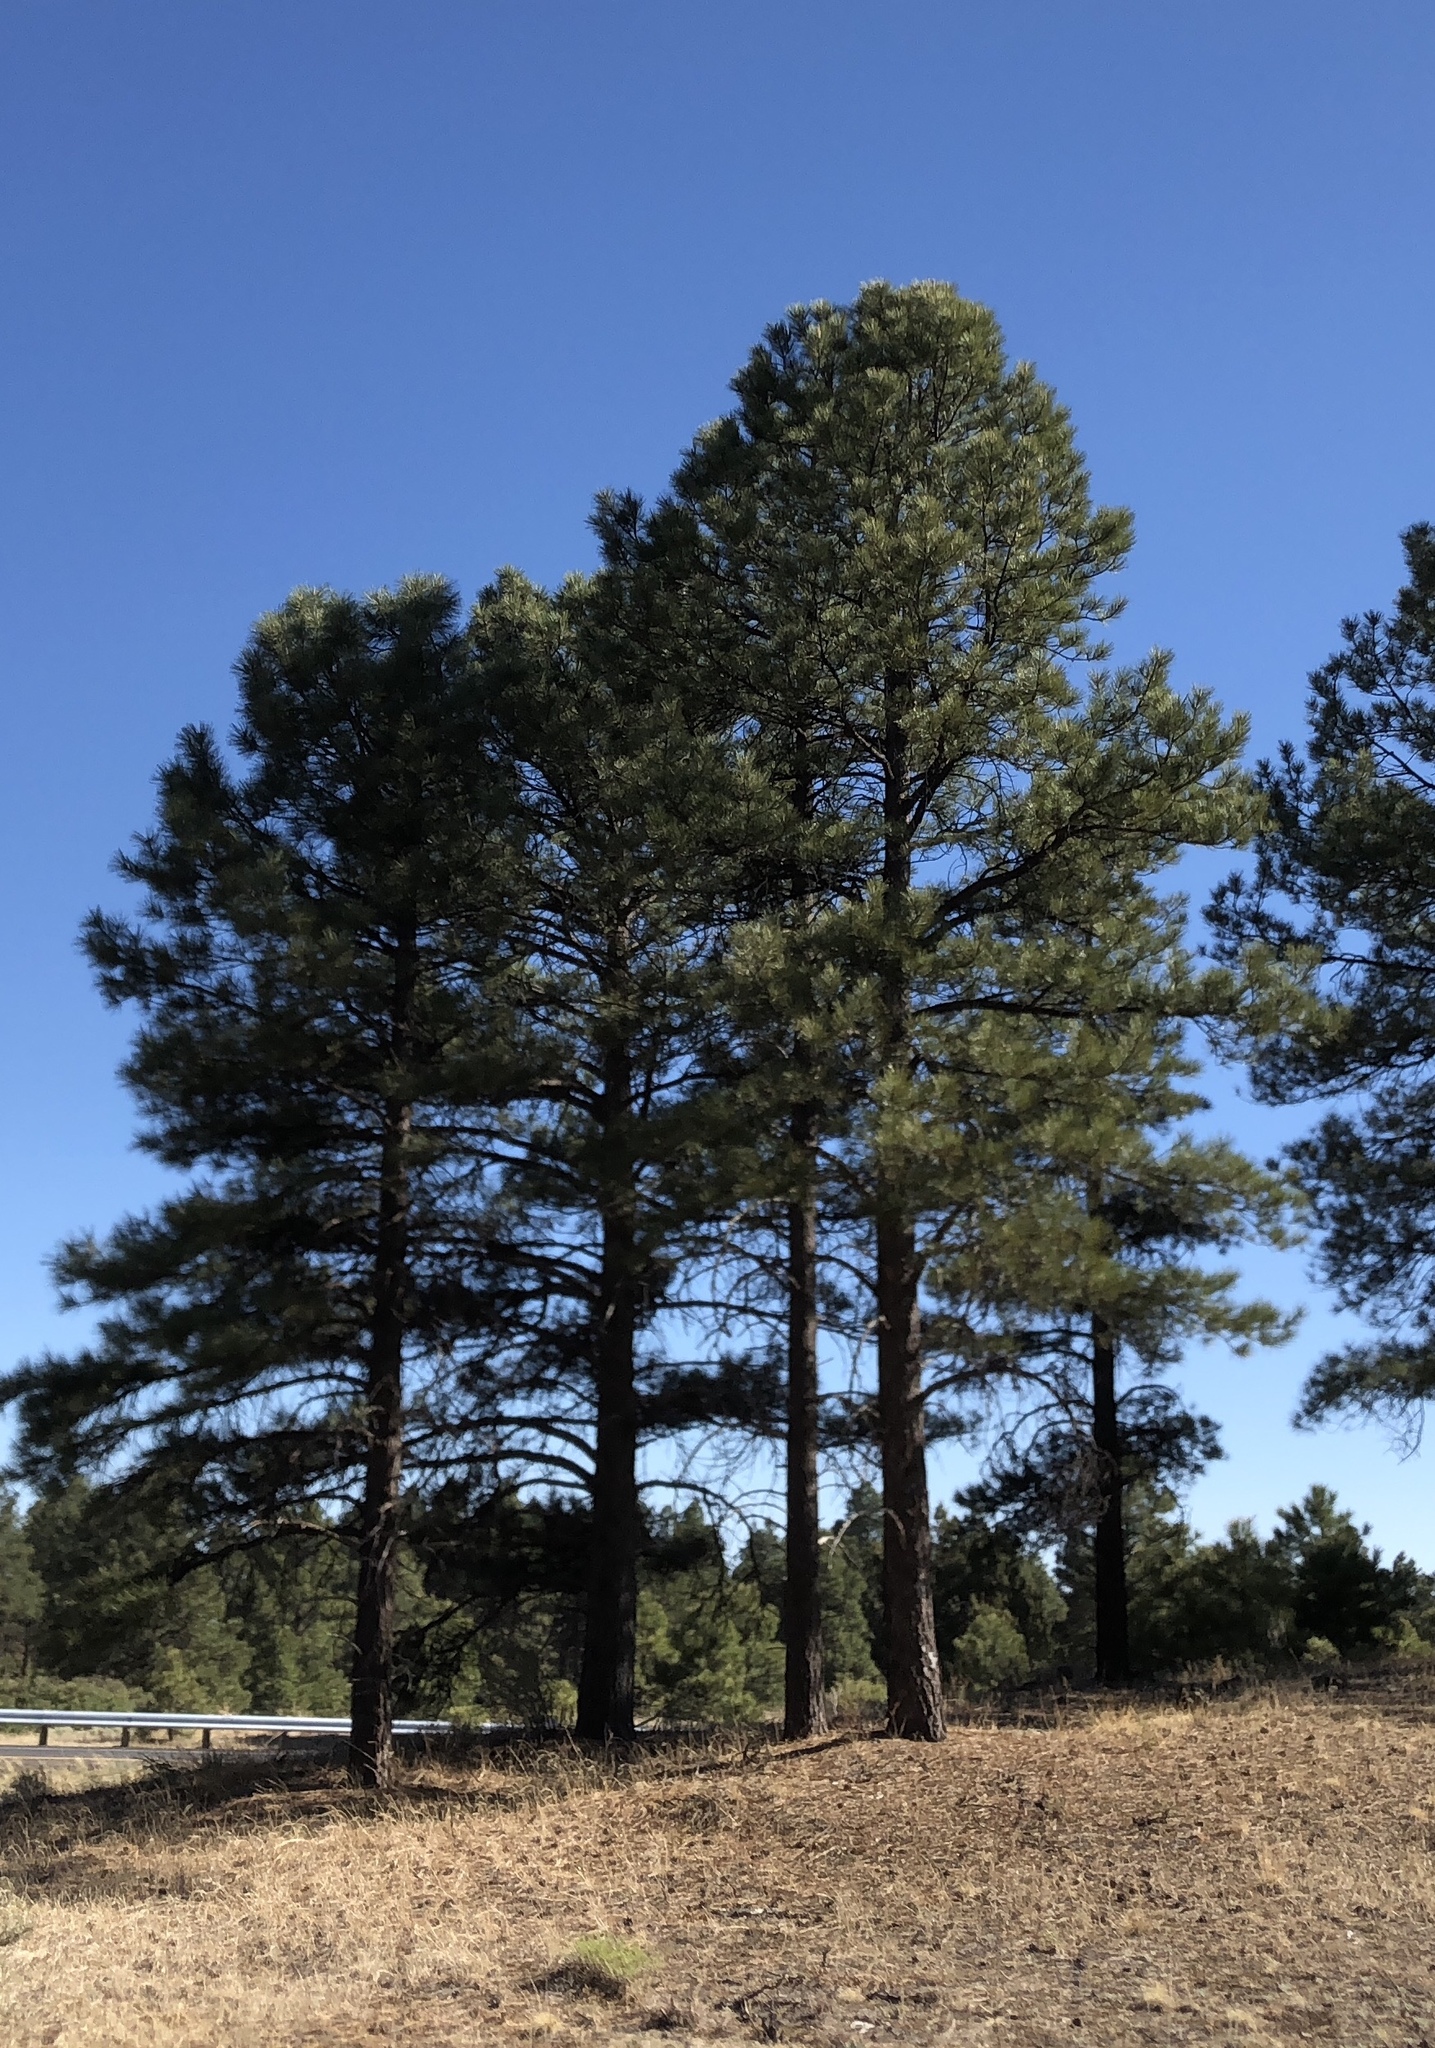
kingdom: Plantae
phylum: Tracheophyta
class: Pinopsida
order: Pinales
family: Pinaceae
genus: Pinus
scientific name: Pinus ponderosa
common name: Western yellow-pine
